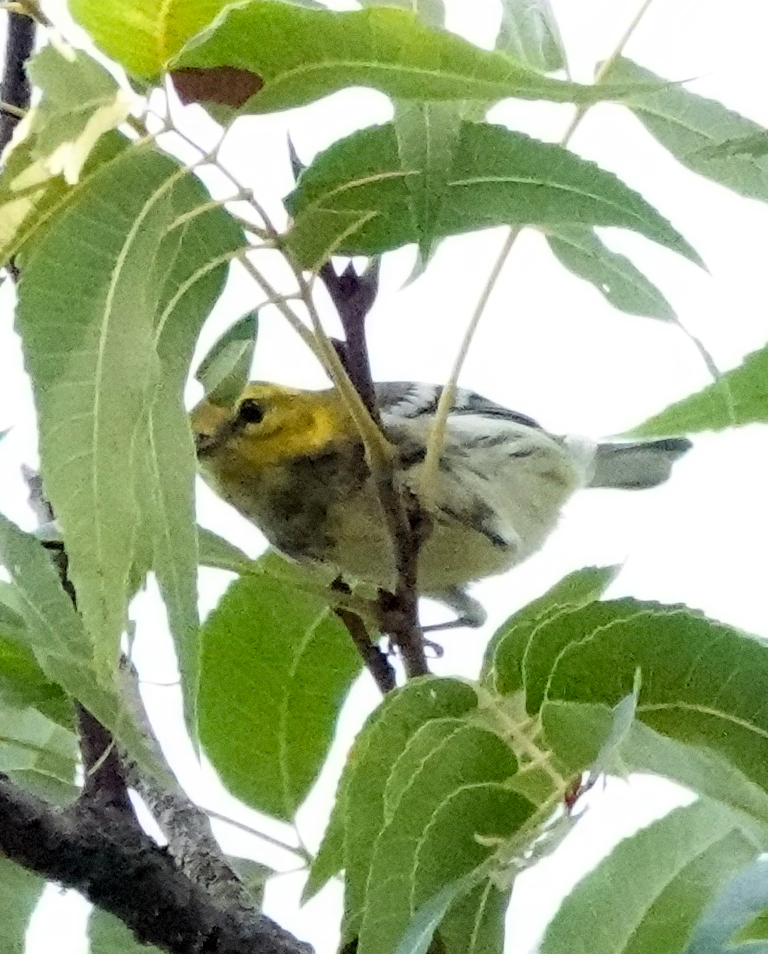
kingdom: Animalia
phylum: Chordata
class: Aves
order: Passeriformes
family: Parulidae
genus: Setophaga
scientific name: Setophaga virens
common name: Black-throated green warbler
